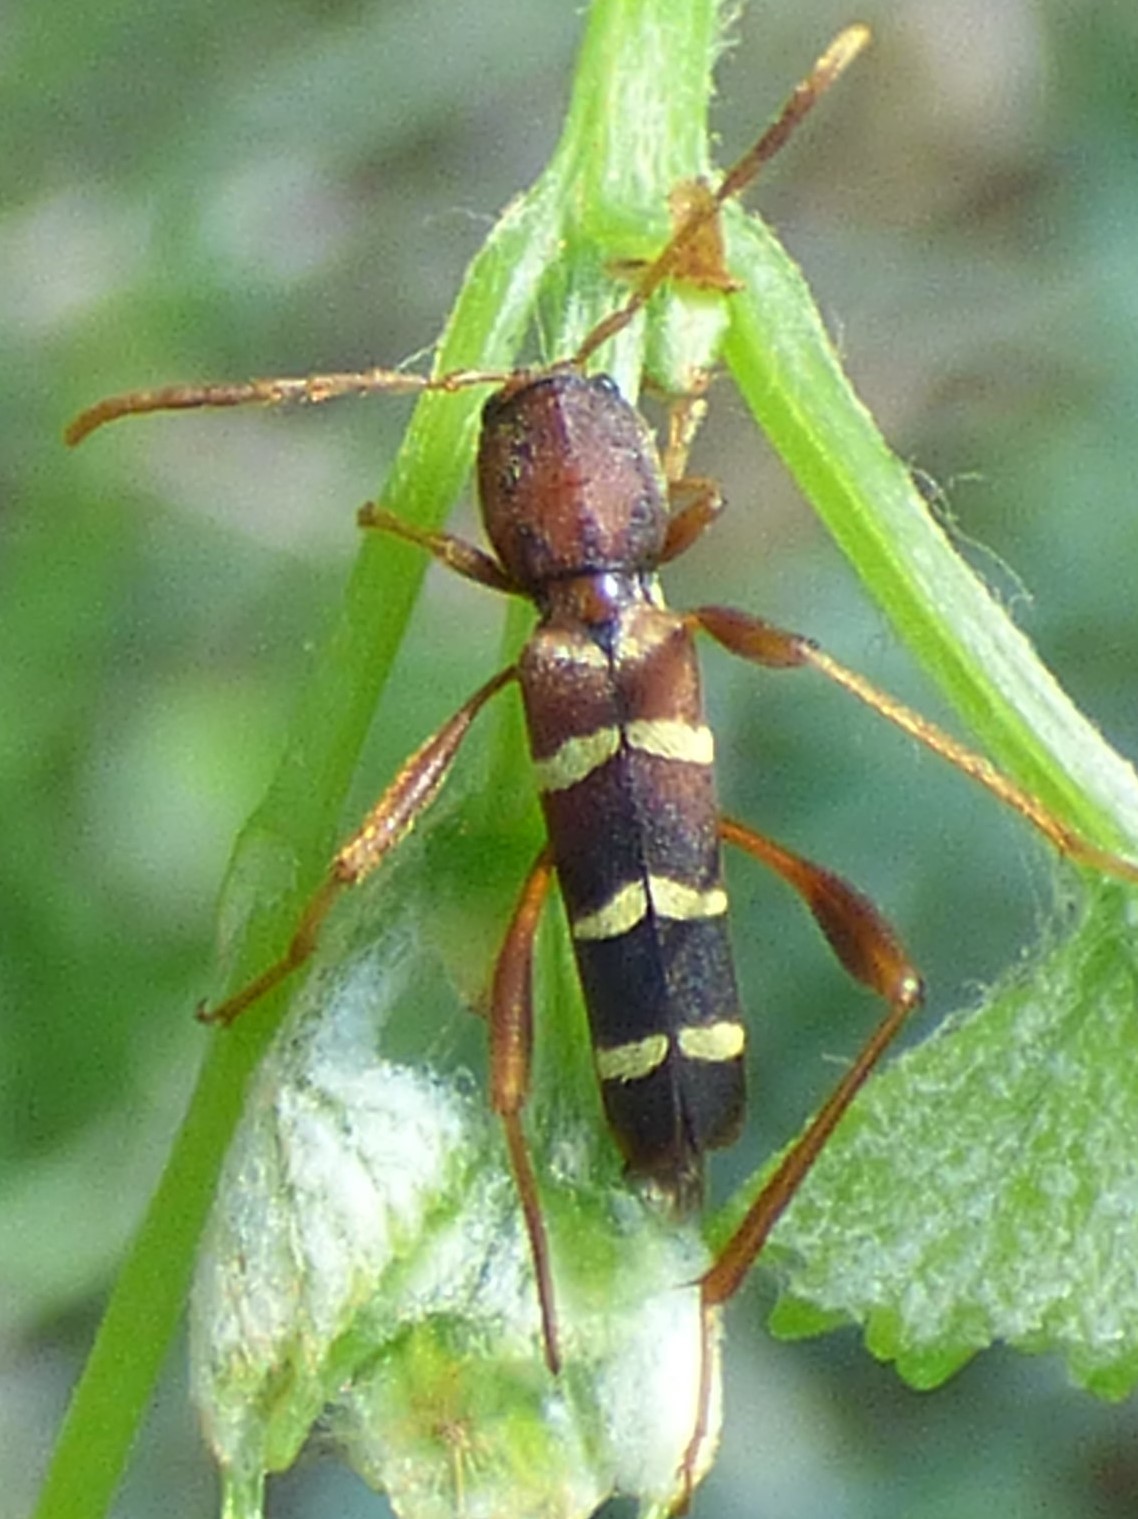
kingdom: Animalia
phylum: Arthropoda
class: Insecta
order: Coleoptera
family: Cerambycidae
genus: Neoclytus
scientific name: Neoclytus acuminatus
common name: Read-headed ash borer
